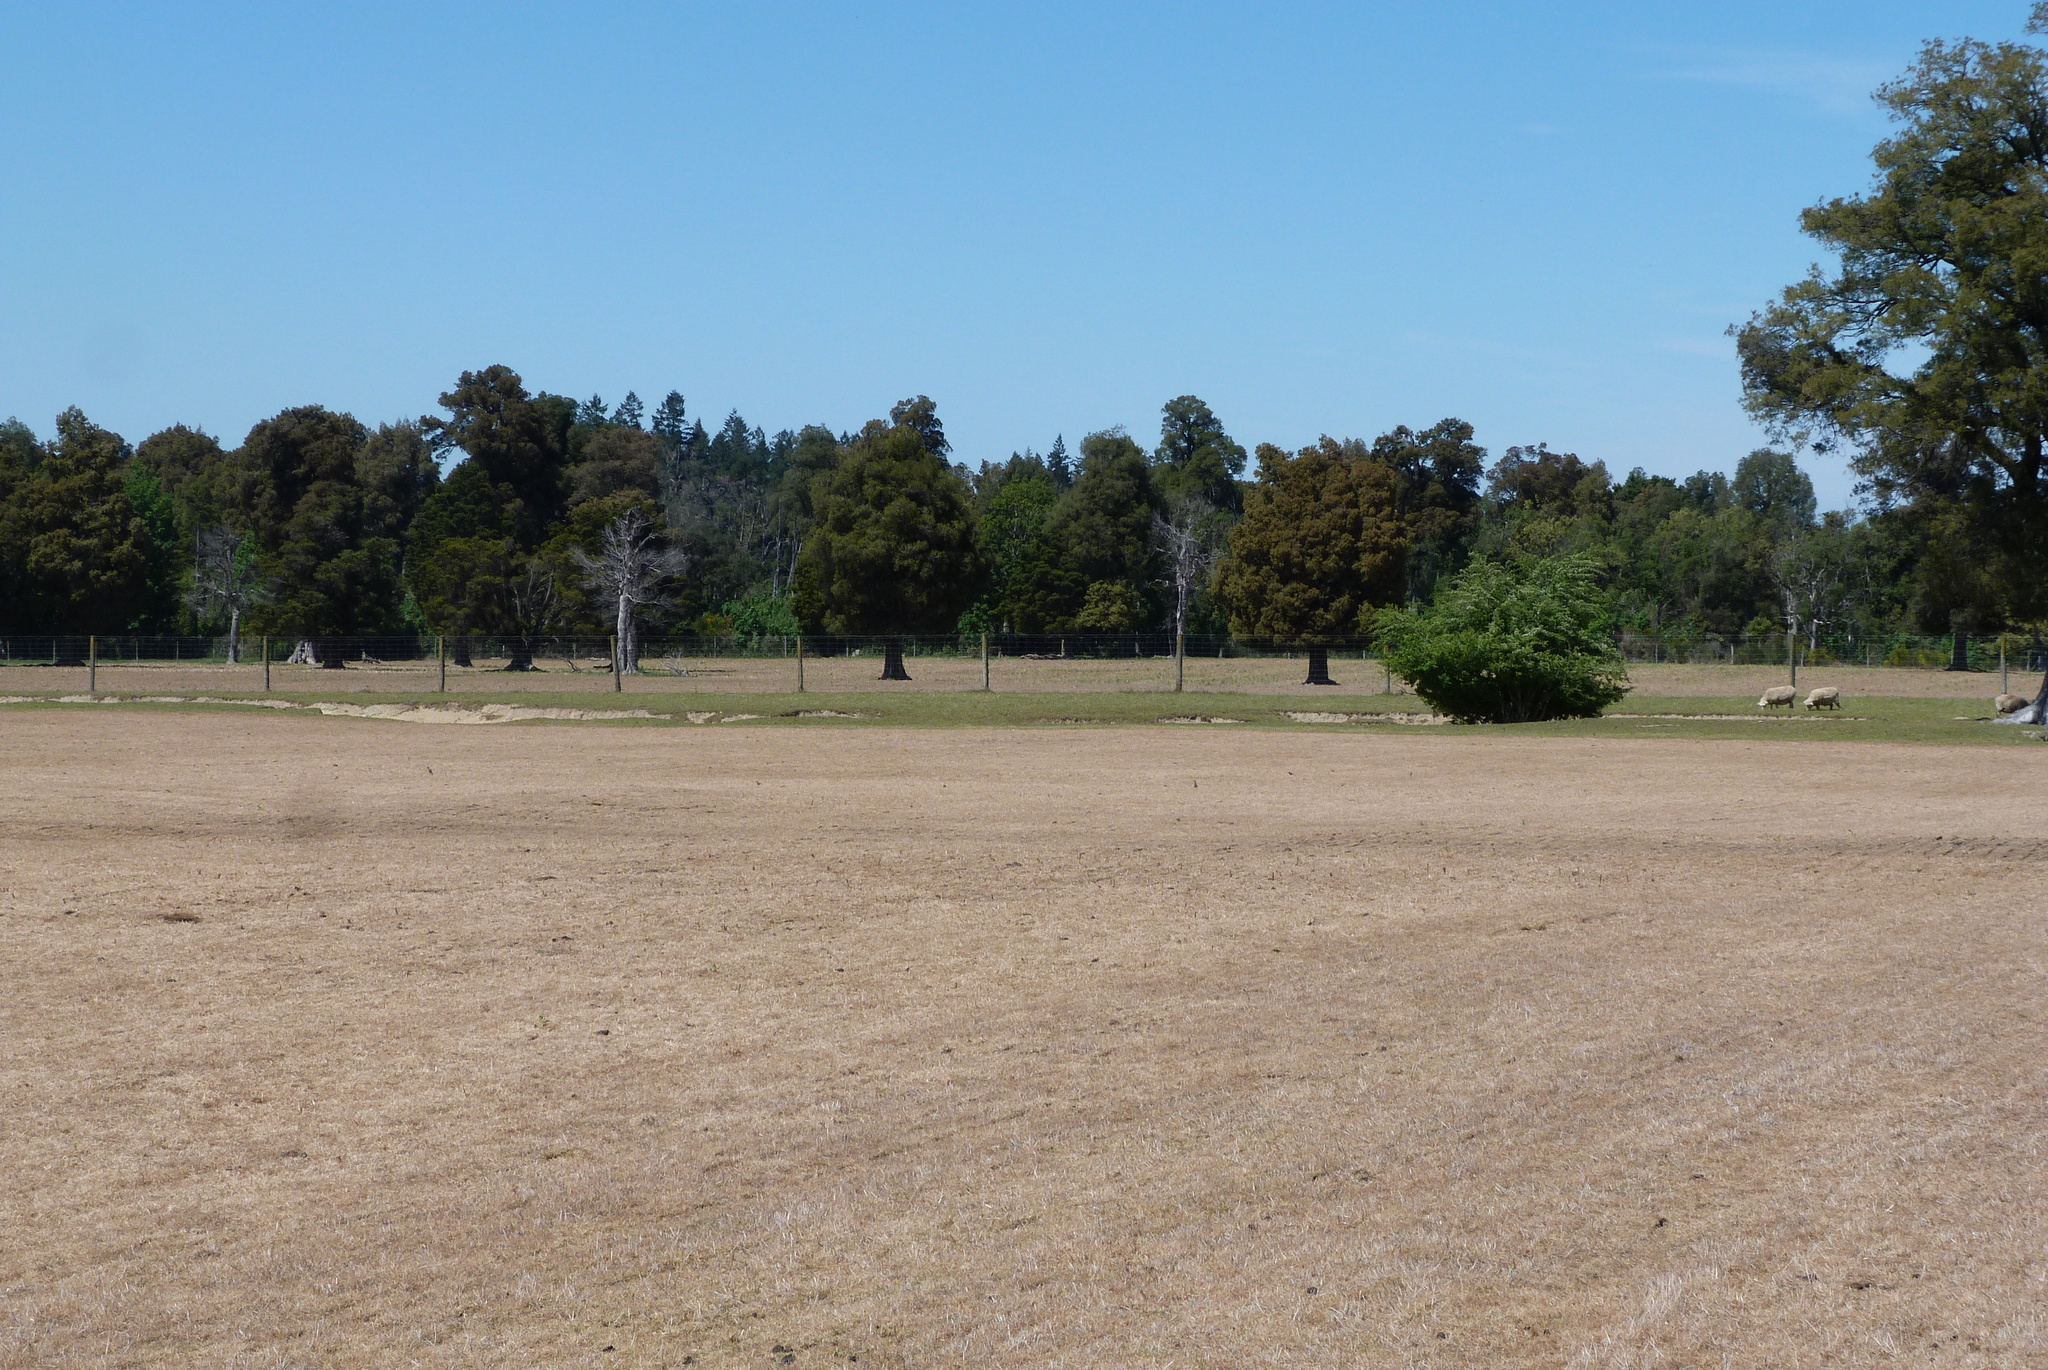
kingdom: Plantae
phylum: Tracheophyta
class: Pinopsida
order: Pinales
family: Podocarpaceae
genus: Podocarpus
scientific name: Podocarpus totara
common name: Totara
